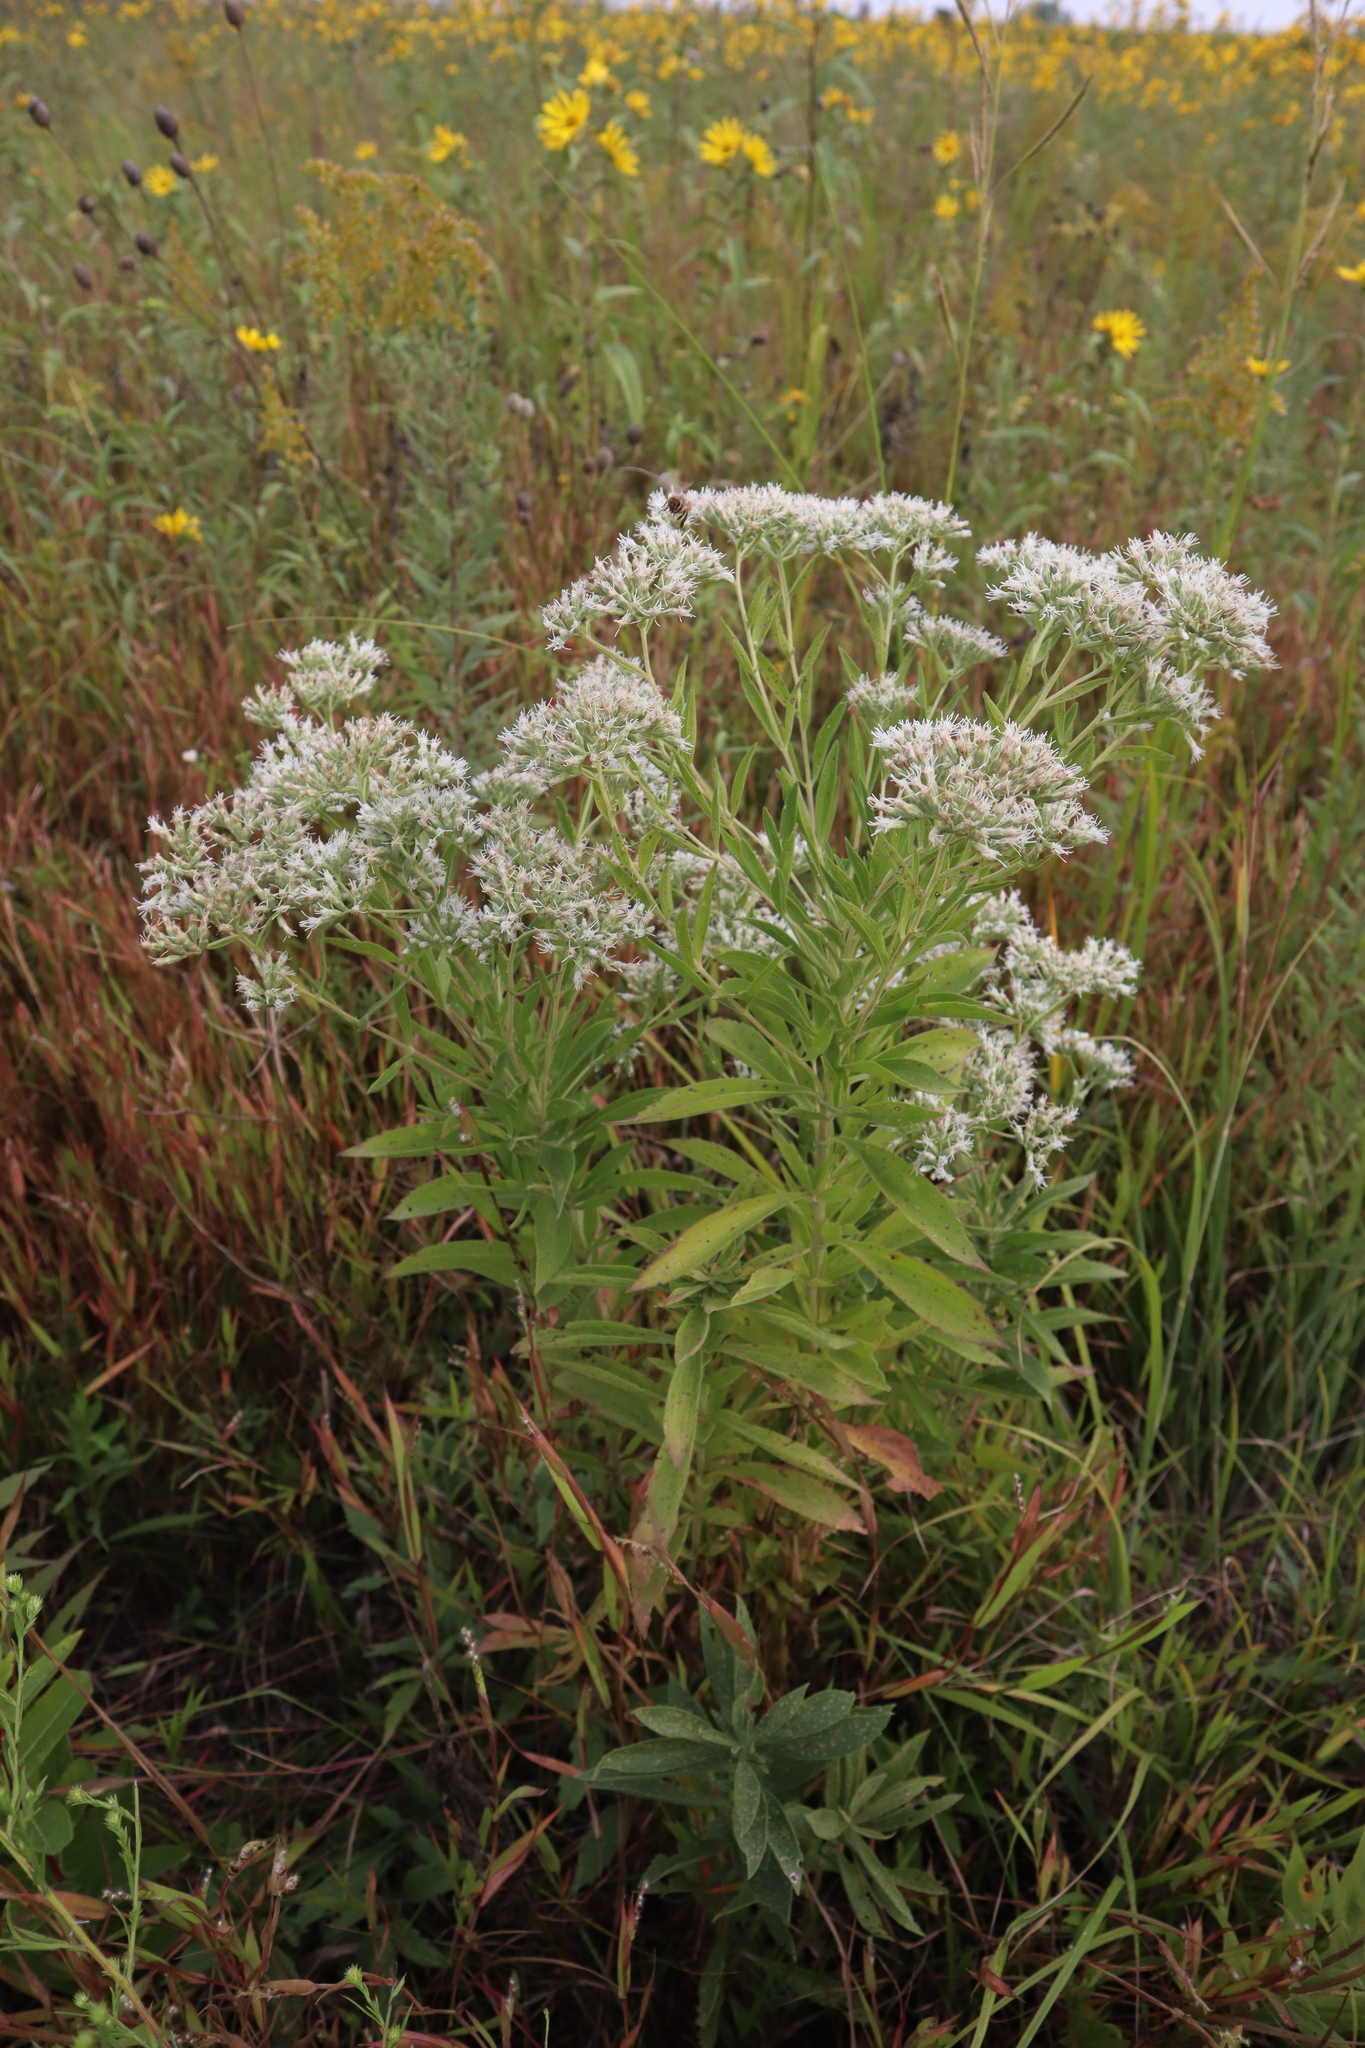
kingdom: Plantae
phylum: Tracheophyta
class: Magnoliopsida
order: Asterales
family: Asteraceae
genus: Eupatorium
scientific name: Eupatorium altissimum
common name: Tall thoroughwort
